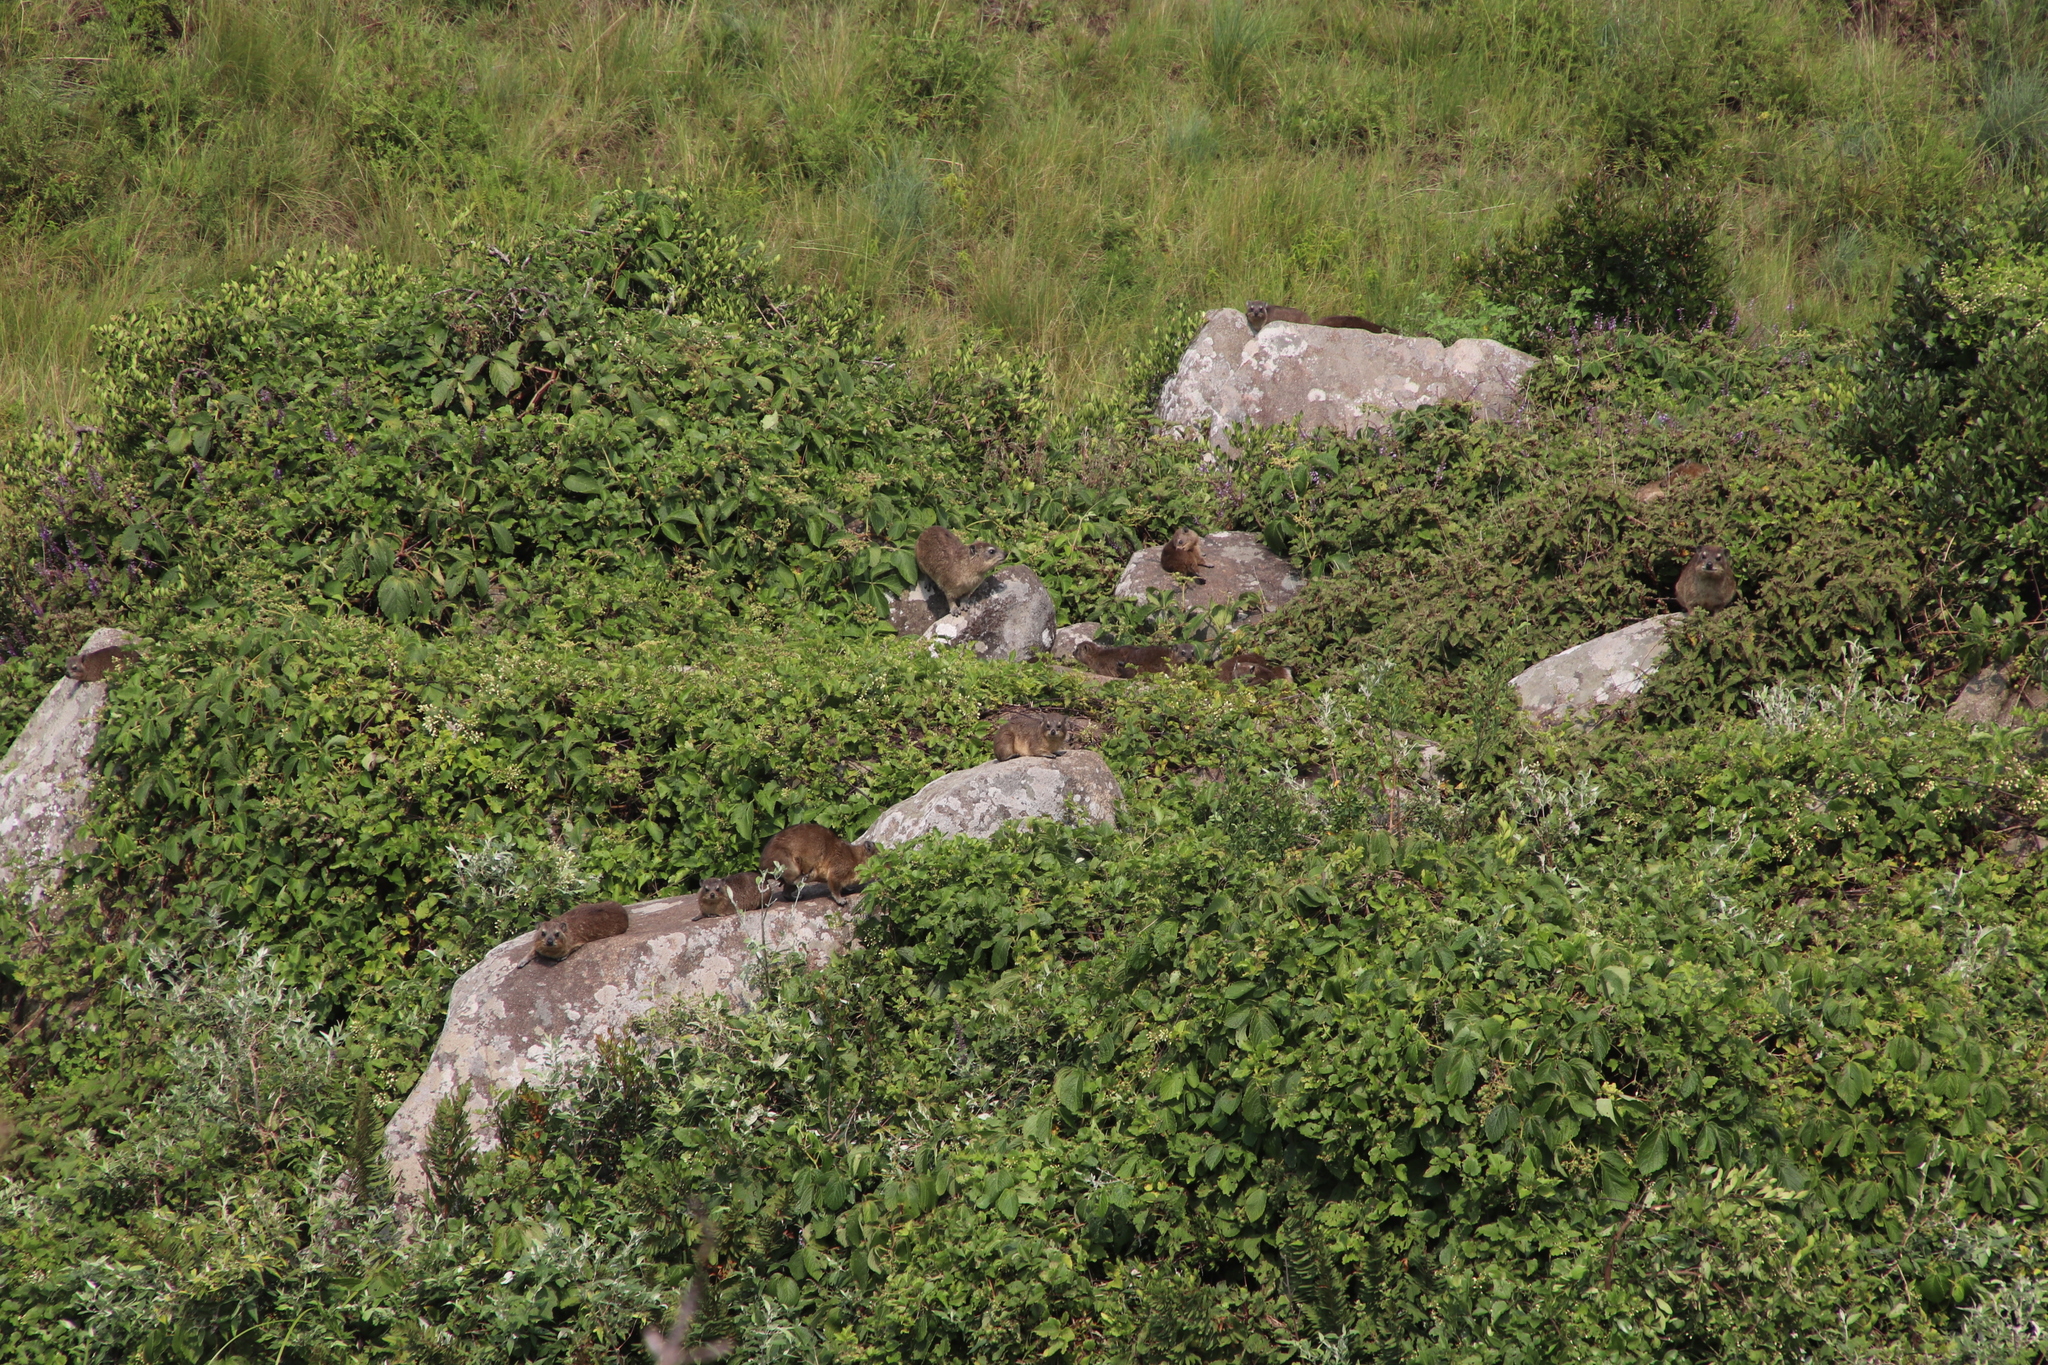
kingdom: Animalia
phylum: Chordata
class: Mammalia
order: Hyracoidea
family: Procaviidae
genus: Procavia
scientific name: Procavia capensis
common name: Rock hyrax
